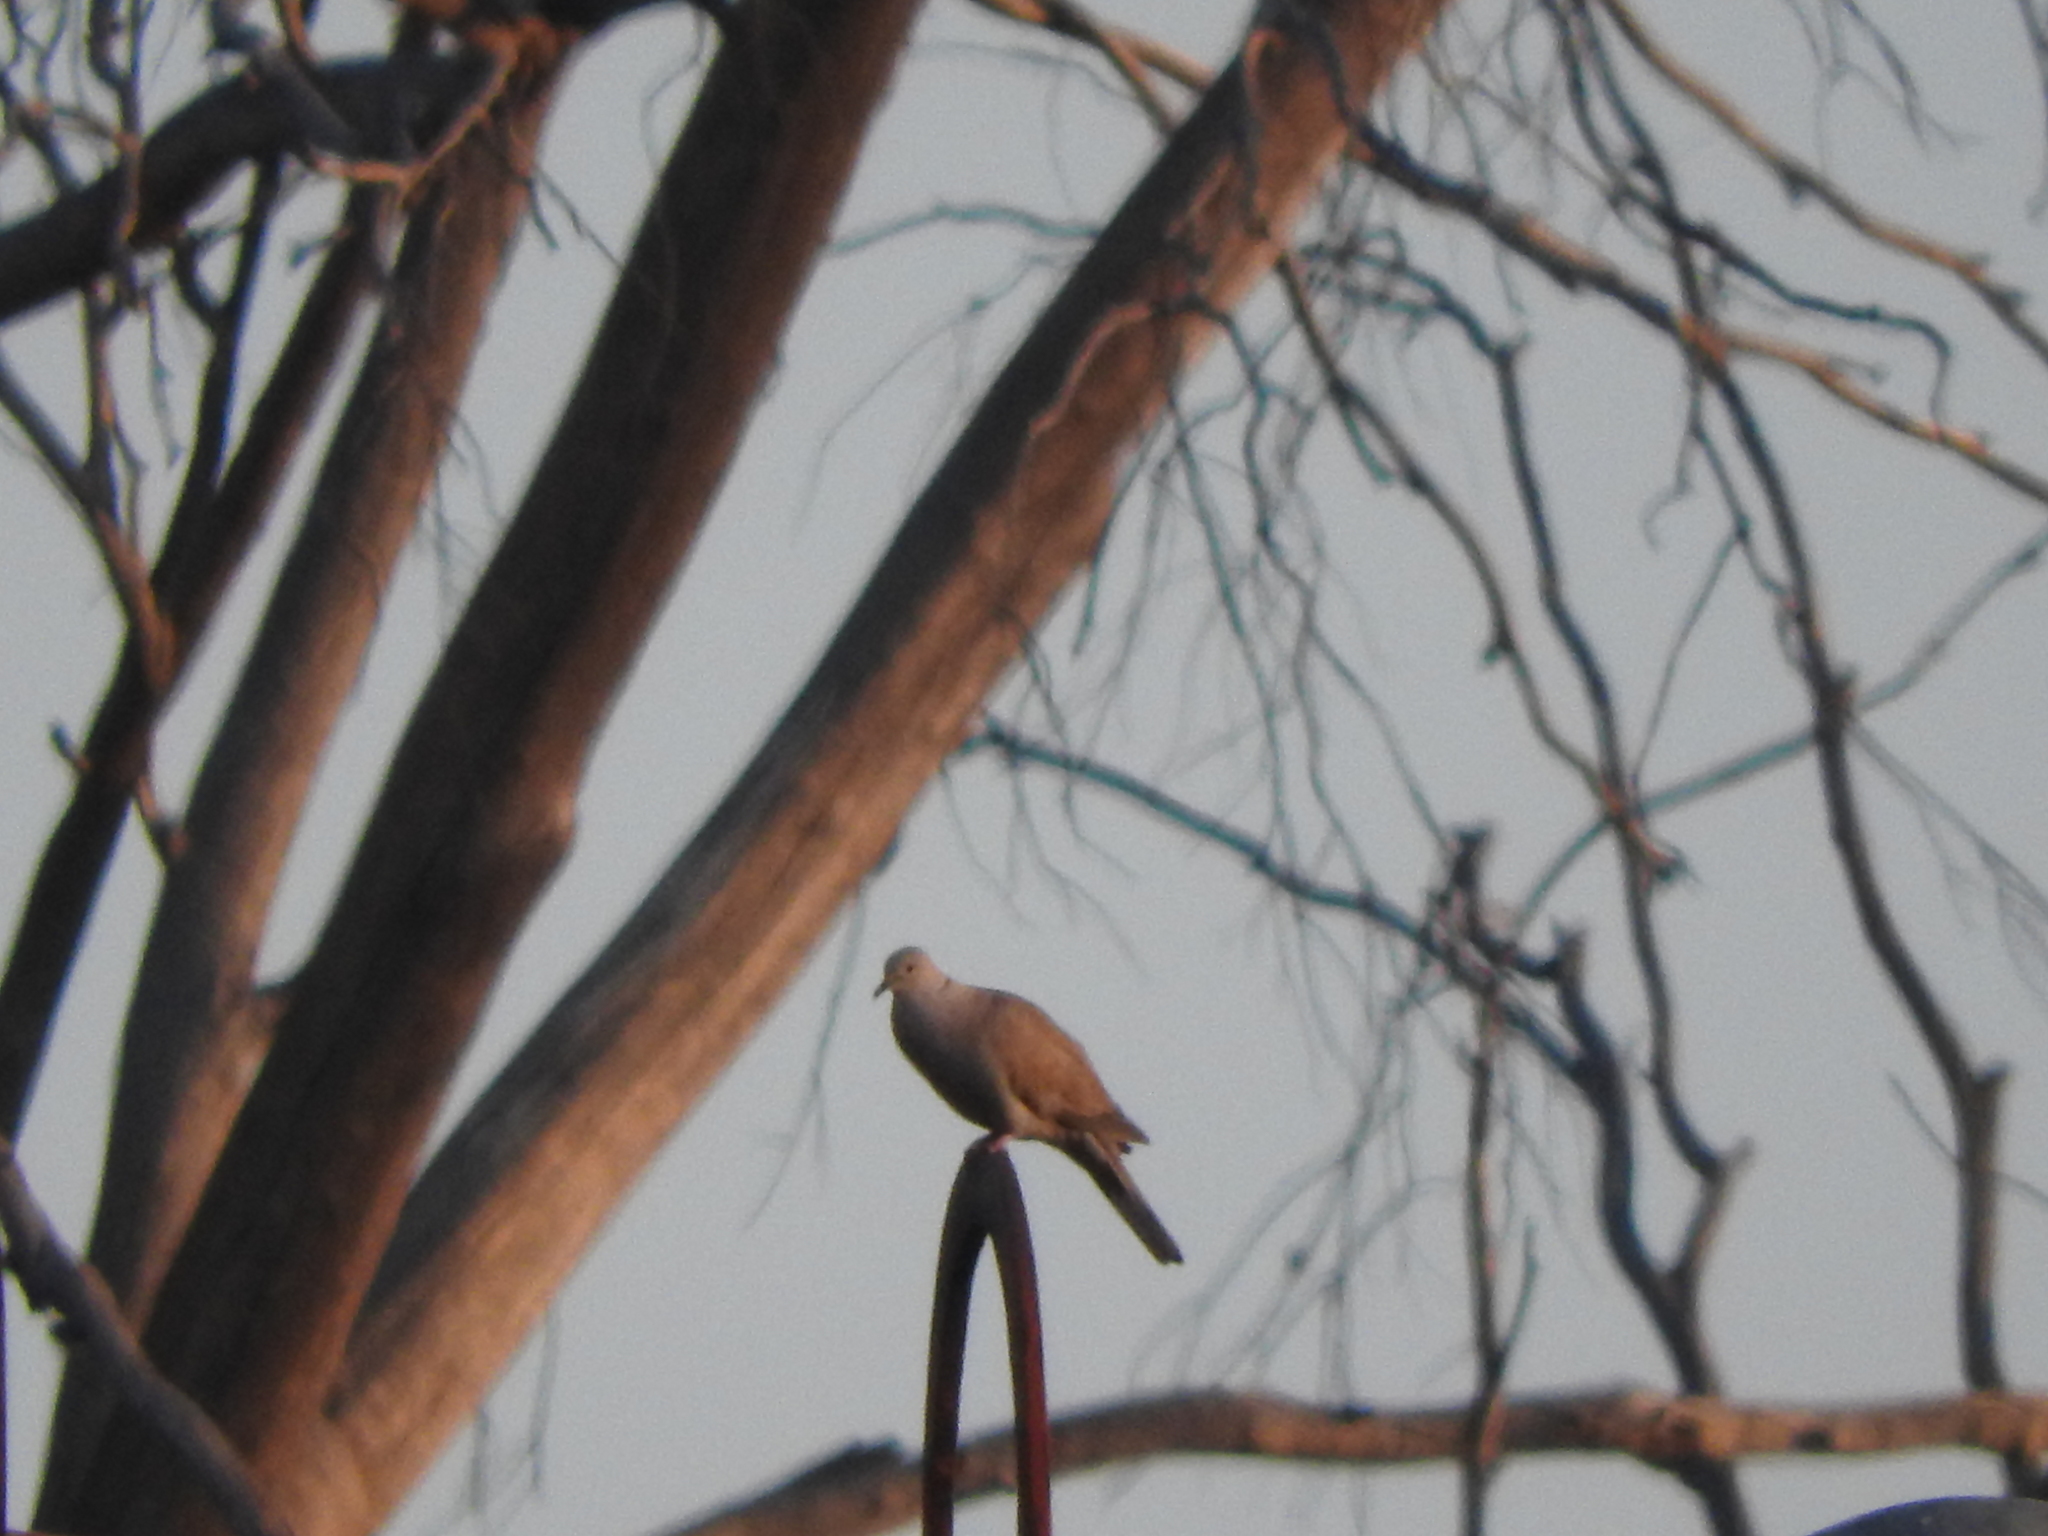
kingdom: Animalia
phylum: Chordata
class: Aves
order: Columbiformes
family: Columbidae
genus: Streptopelia
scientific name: Streptopelia decaocto
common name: Eurasian collared dove
